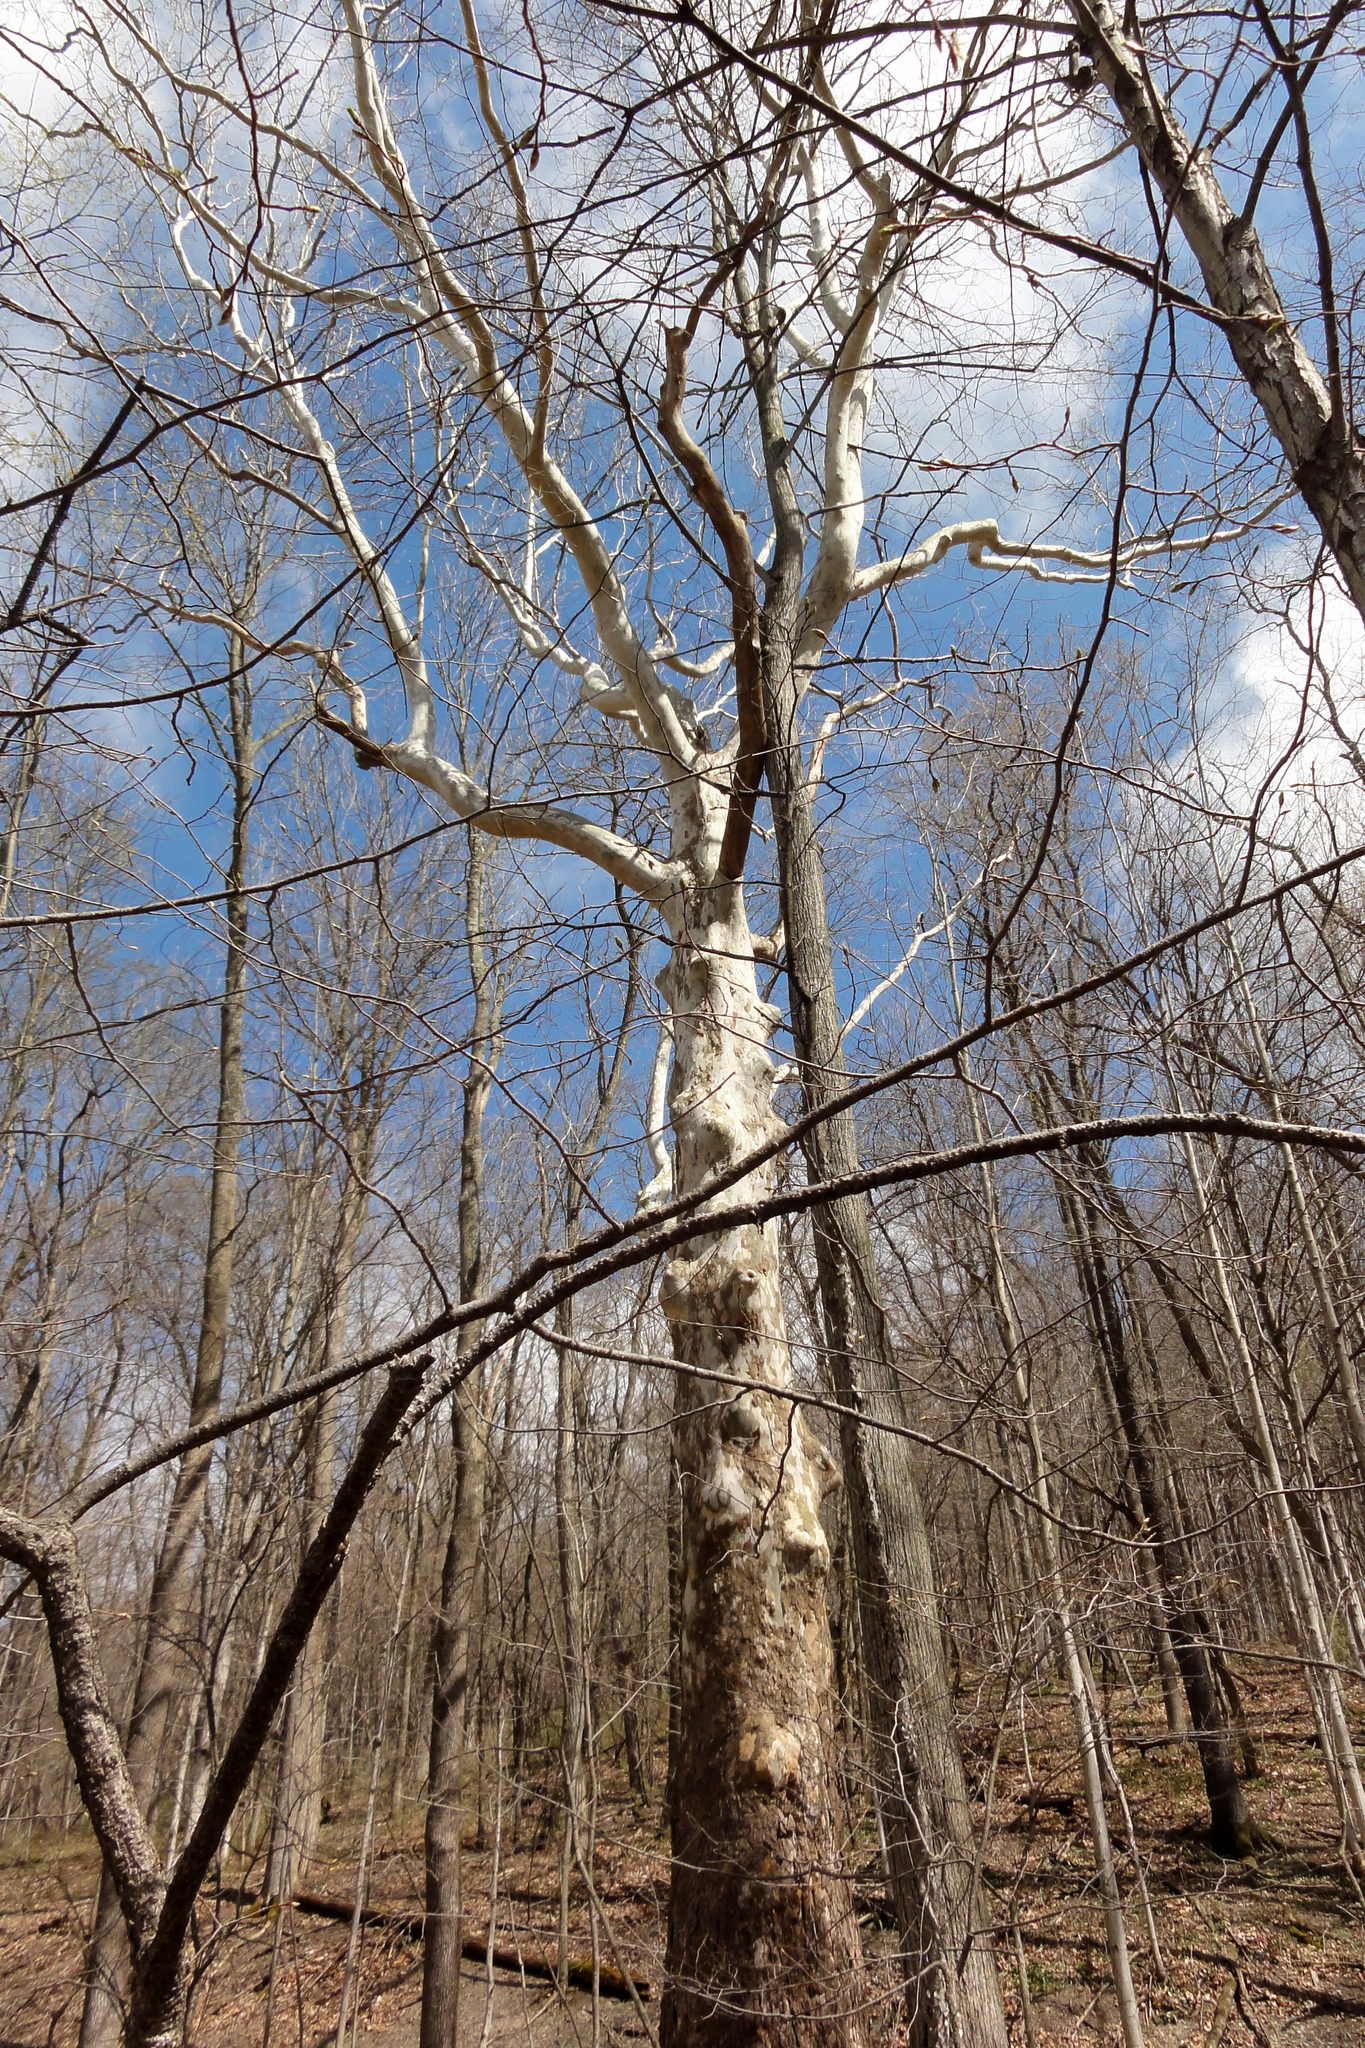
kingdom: Plantae
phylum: Tracheophyta
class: Magnoliopsida
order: Proteales
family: Platanaceae
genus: Platanus
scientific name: Platanus occidentalis
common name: American sycamore
